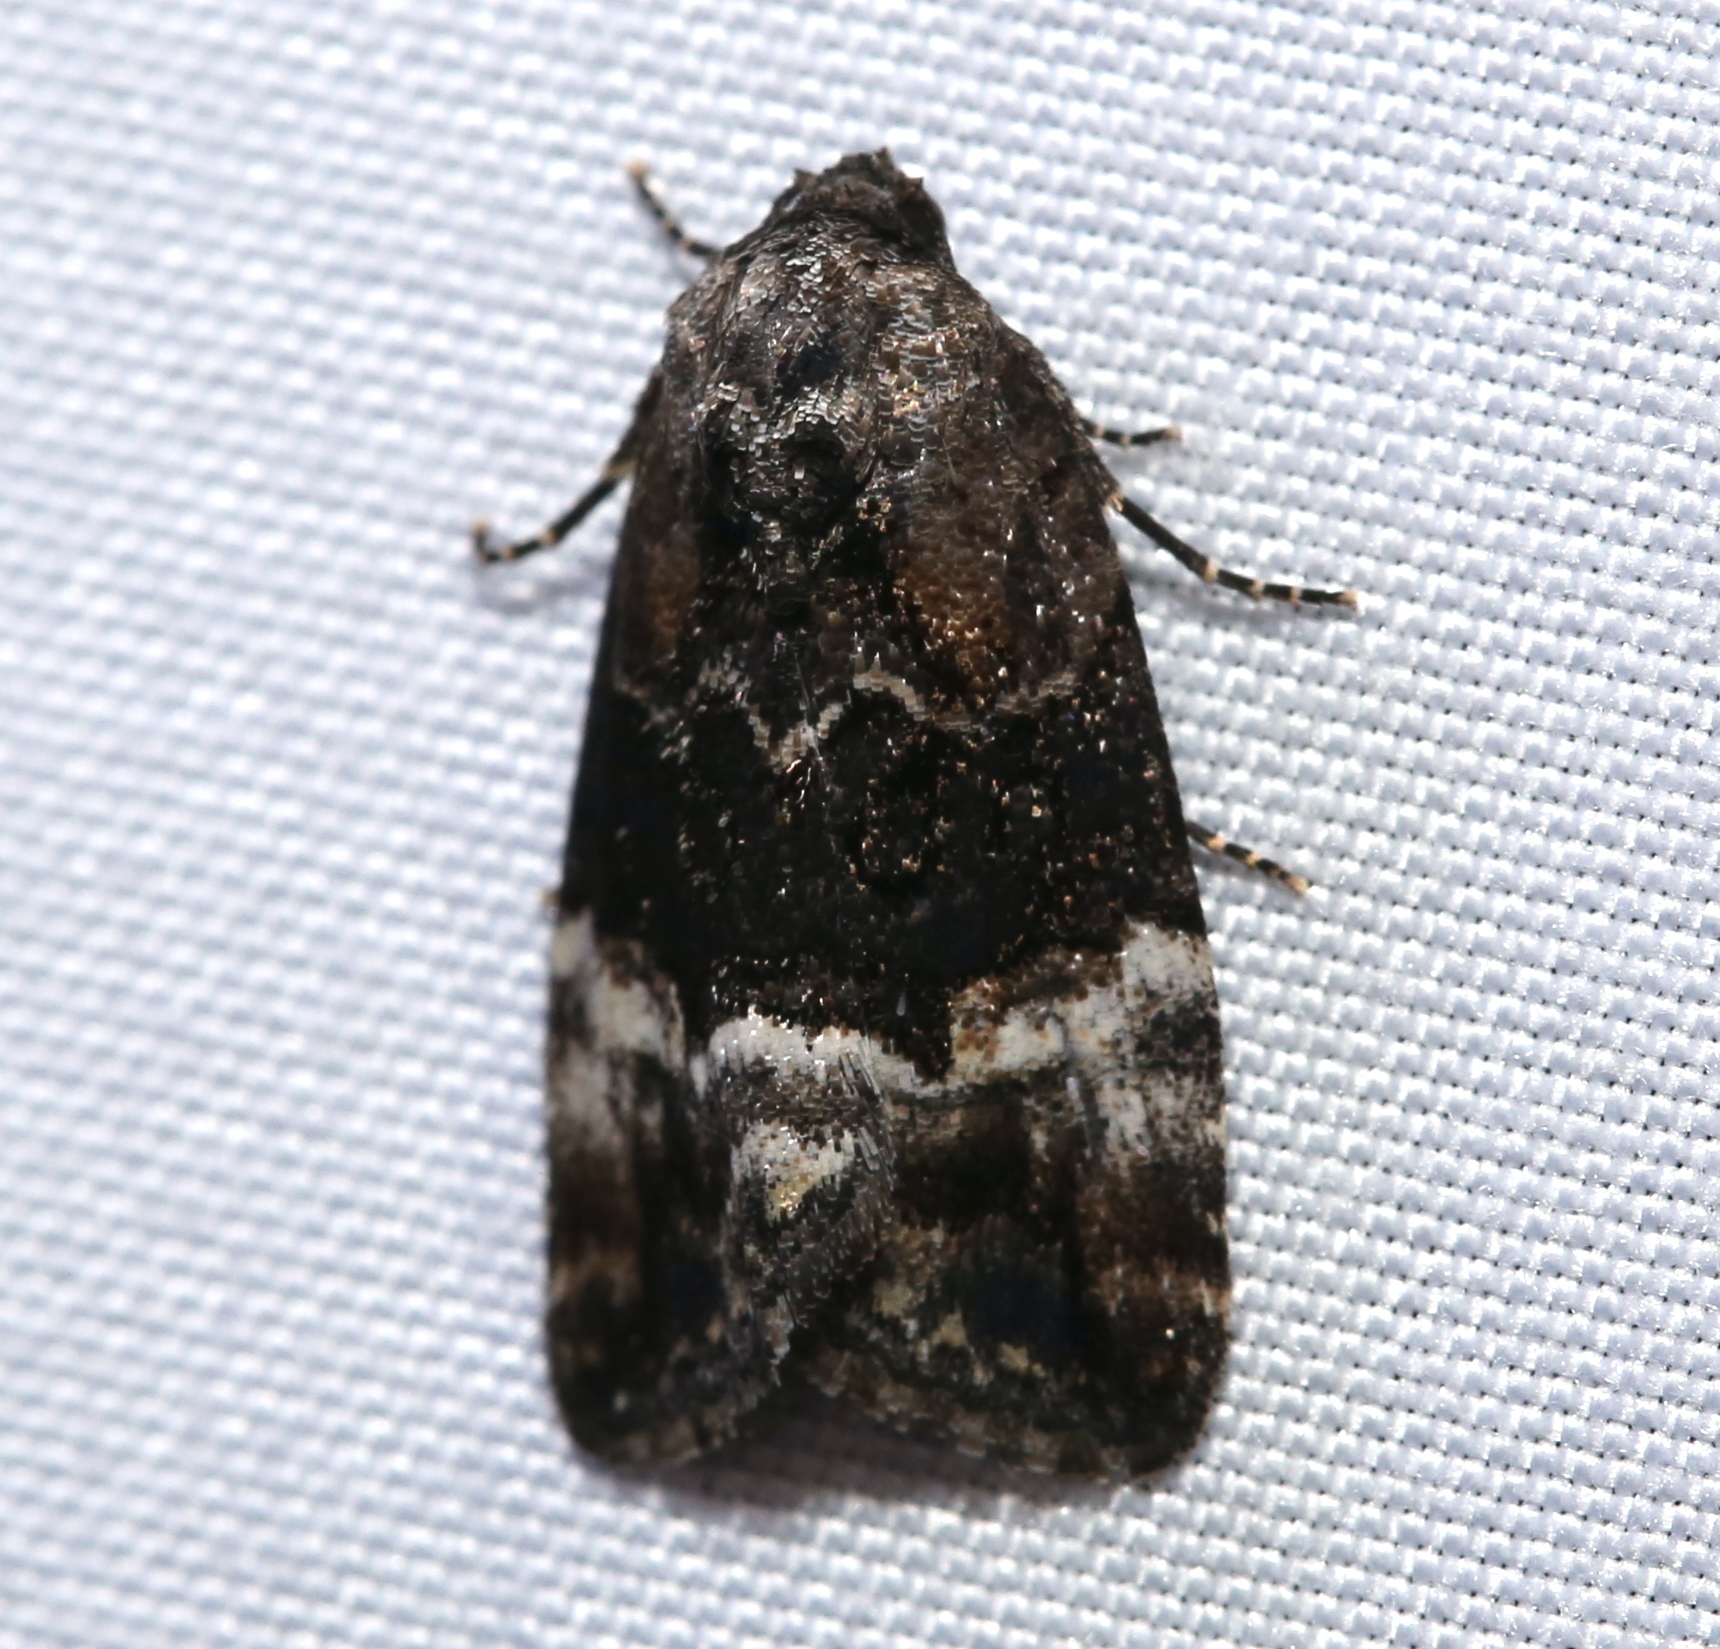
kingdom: Animalia
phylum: Arthropoda
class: Insecta
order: Lepidoptera
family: Noctuidae
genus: Elaphria
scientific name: Elaphria georgei
